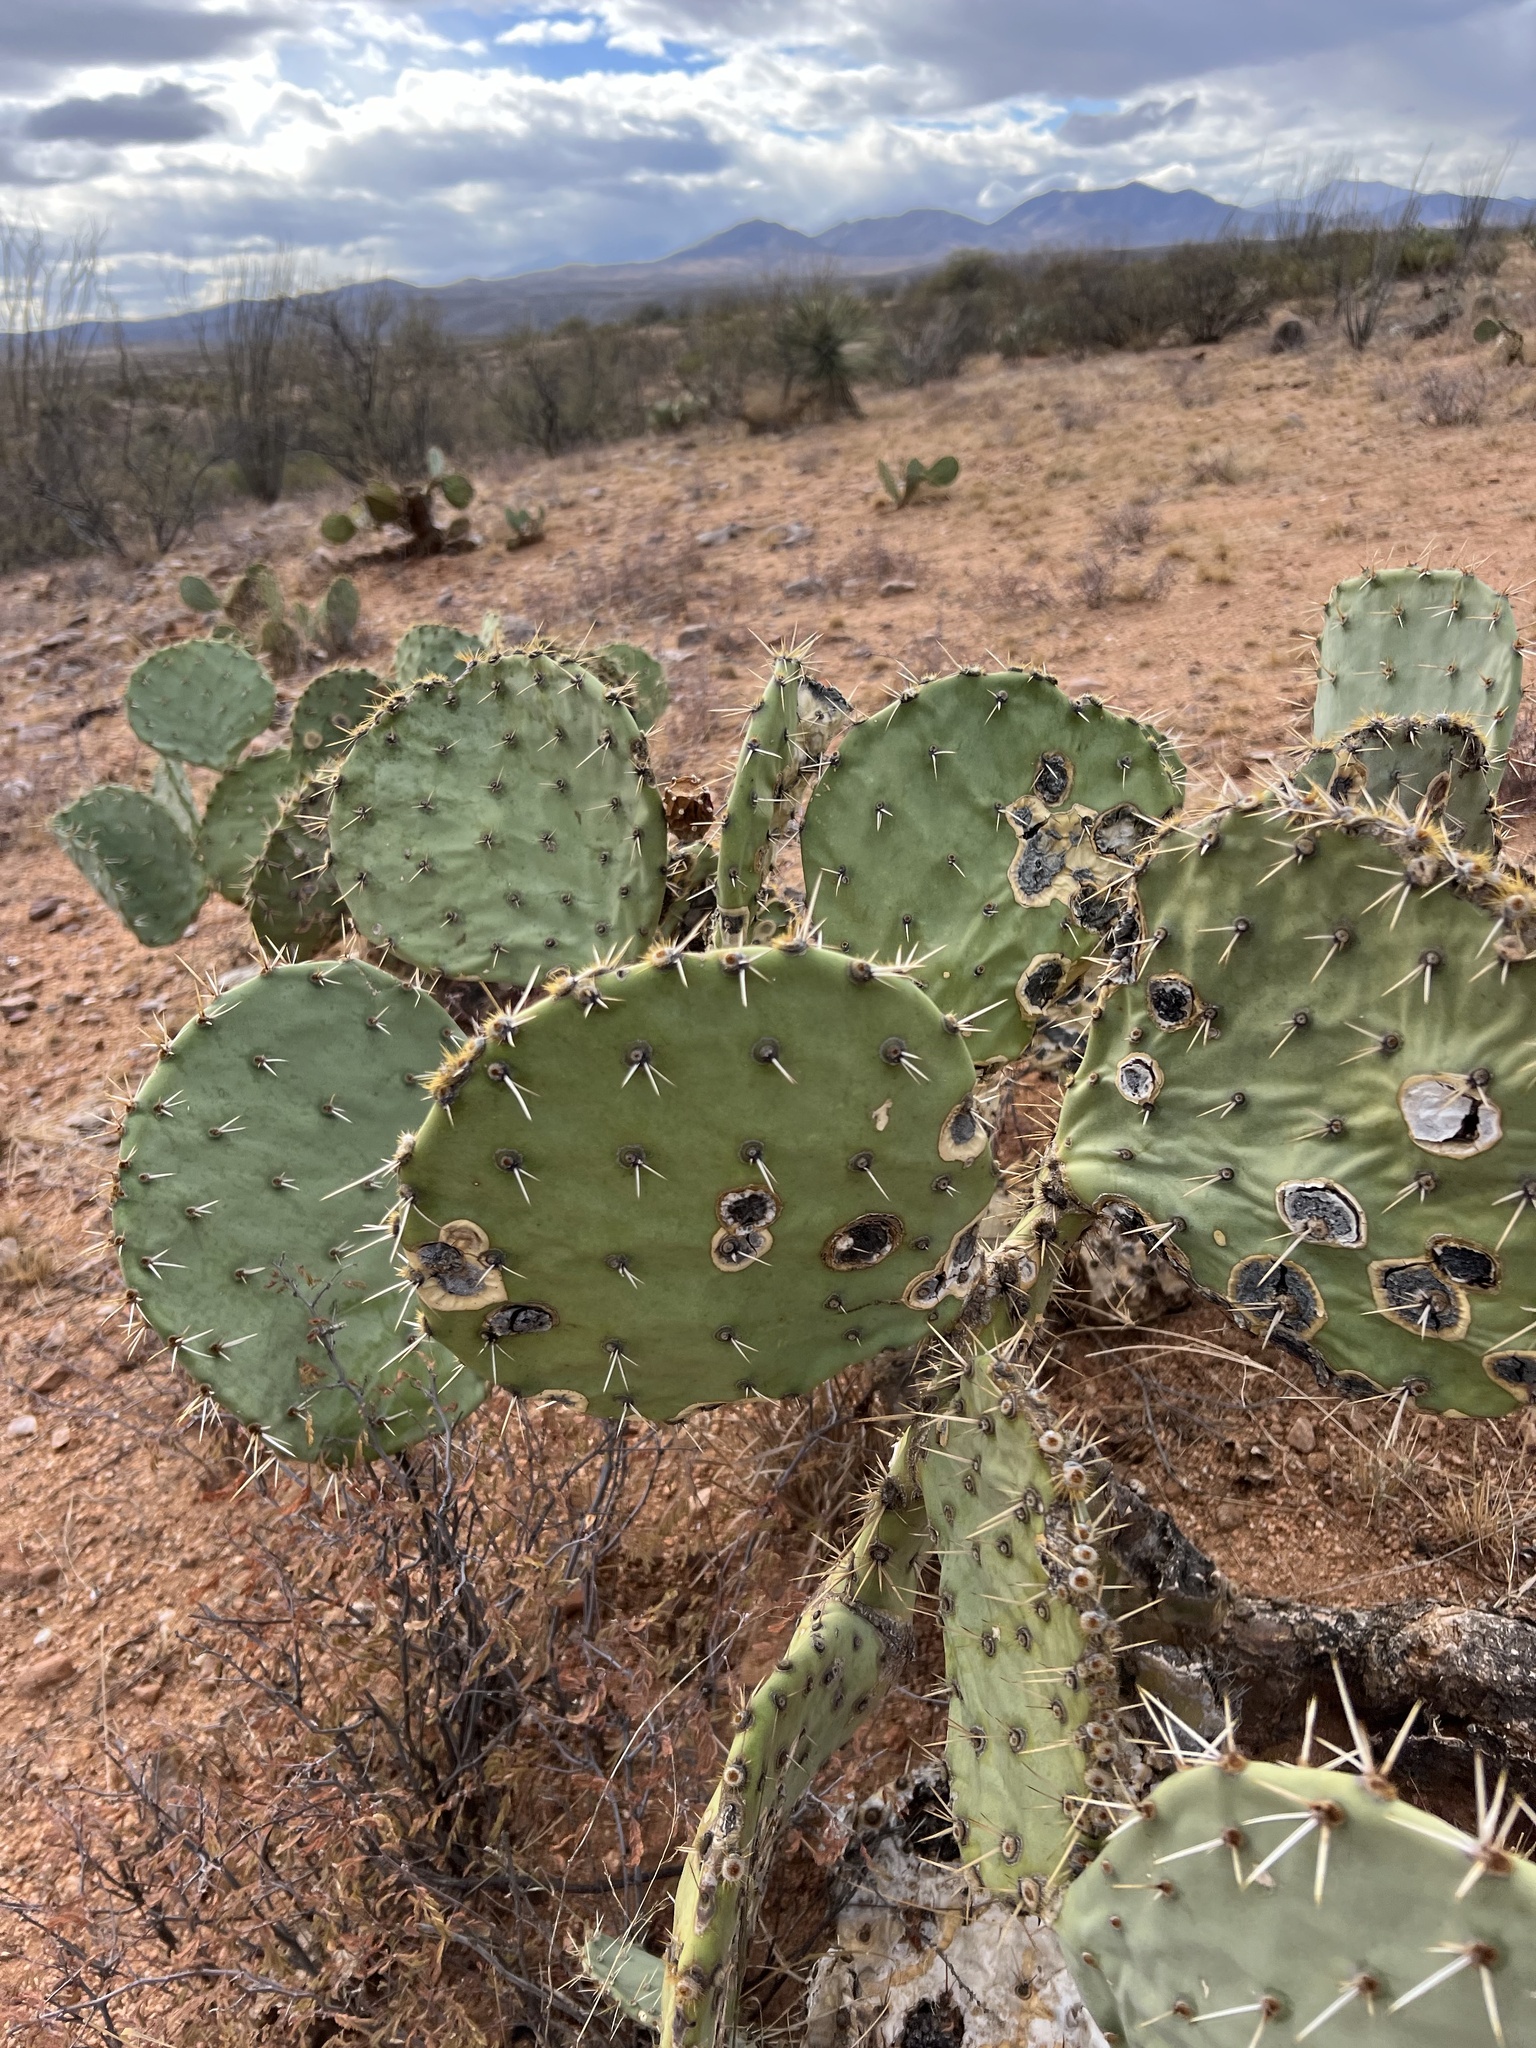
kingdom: Plantae
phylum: Tracheophyta
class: Magnoliopsida
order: Caryophyllales
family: Cactaceae
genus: Opuntia
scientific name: Opuntia engelmannii
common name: Cactus-apple
